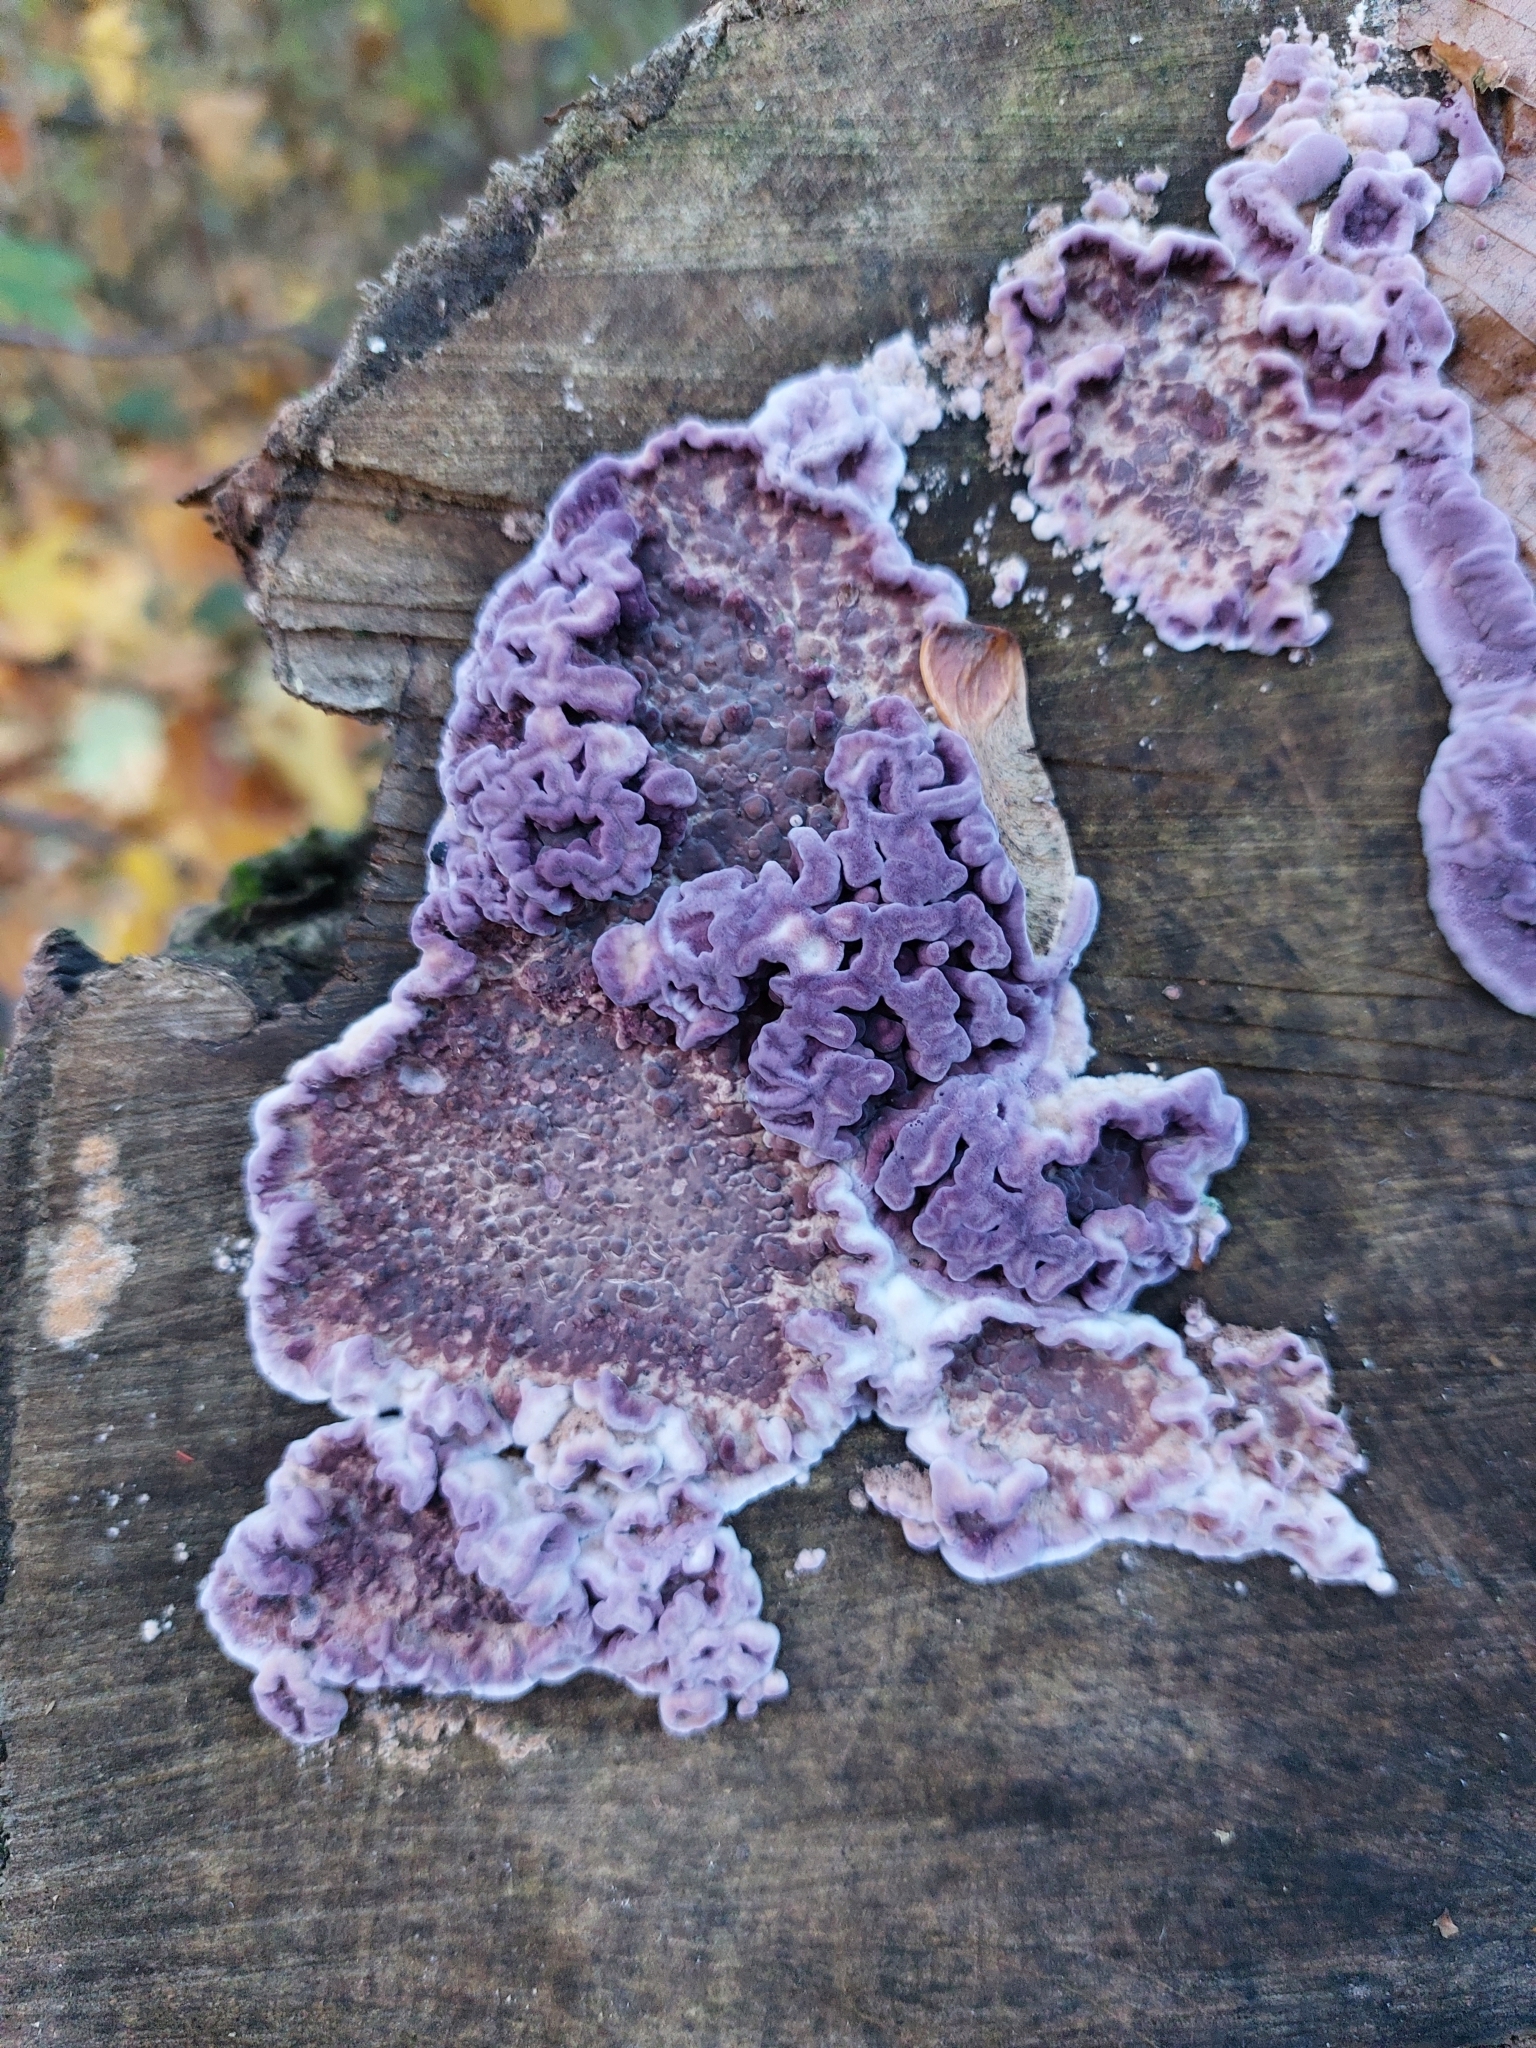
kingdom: Fungi
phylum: Basidiomycota
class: Agaricomycetes
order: Agaricales
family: Cyphellaceae
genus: Chondrostereum
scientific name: Chondrostereum purpureum
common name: Silver leaf disease
